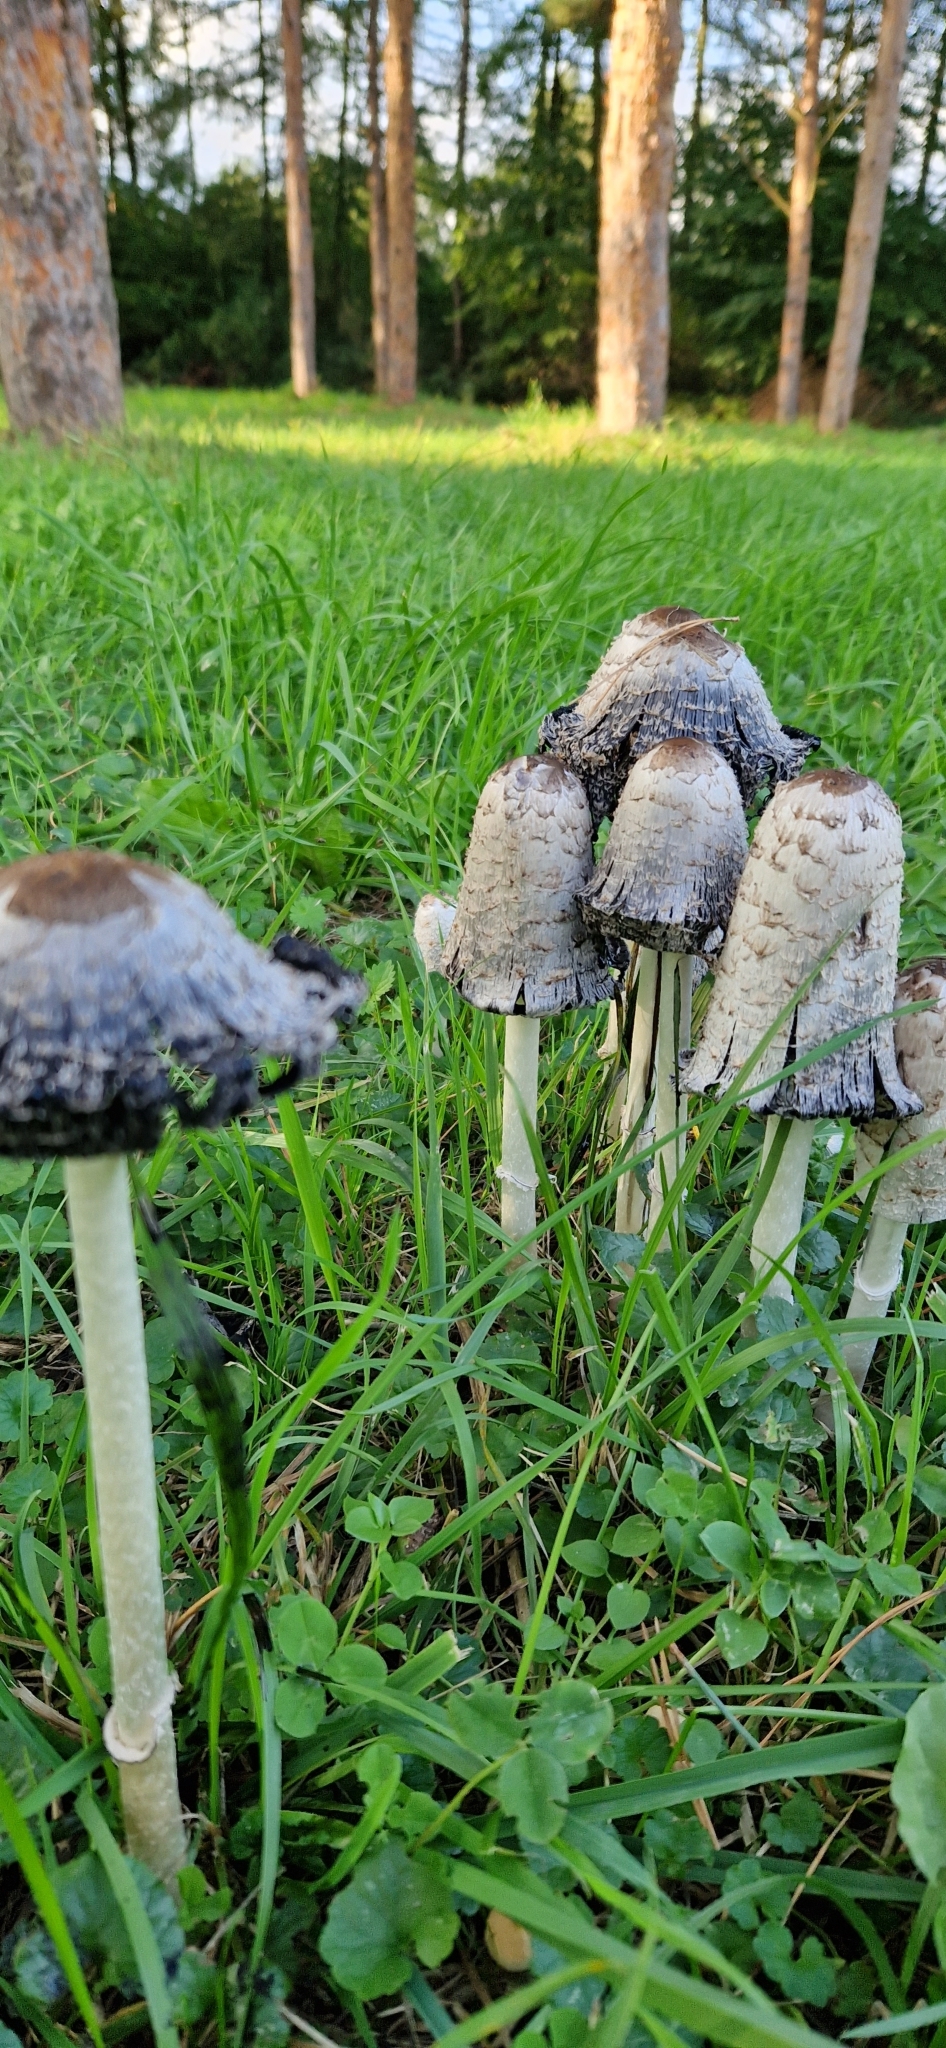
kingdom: Fungi
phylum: Basidiomycota
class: Agaricomycetes
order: Agaricales
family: Agaricaceae
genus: Coprinus
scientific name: Coprinus comatus
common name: Lawyer's wig
